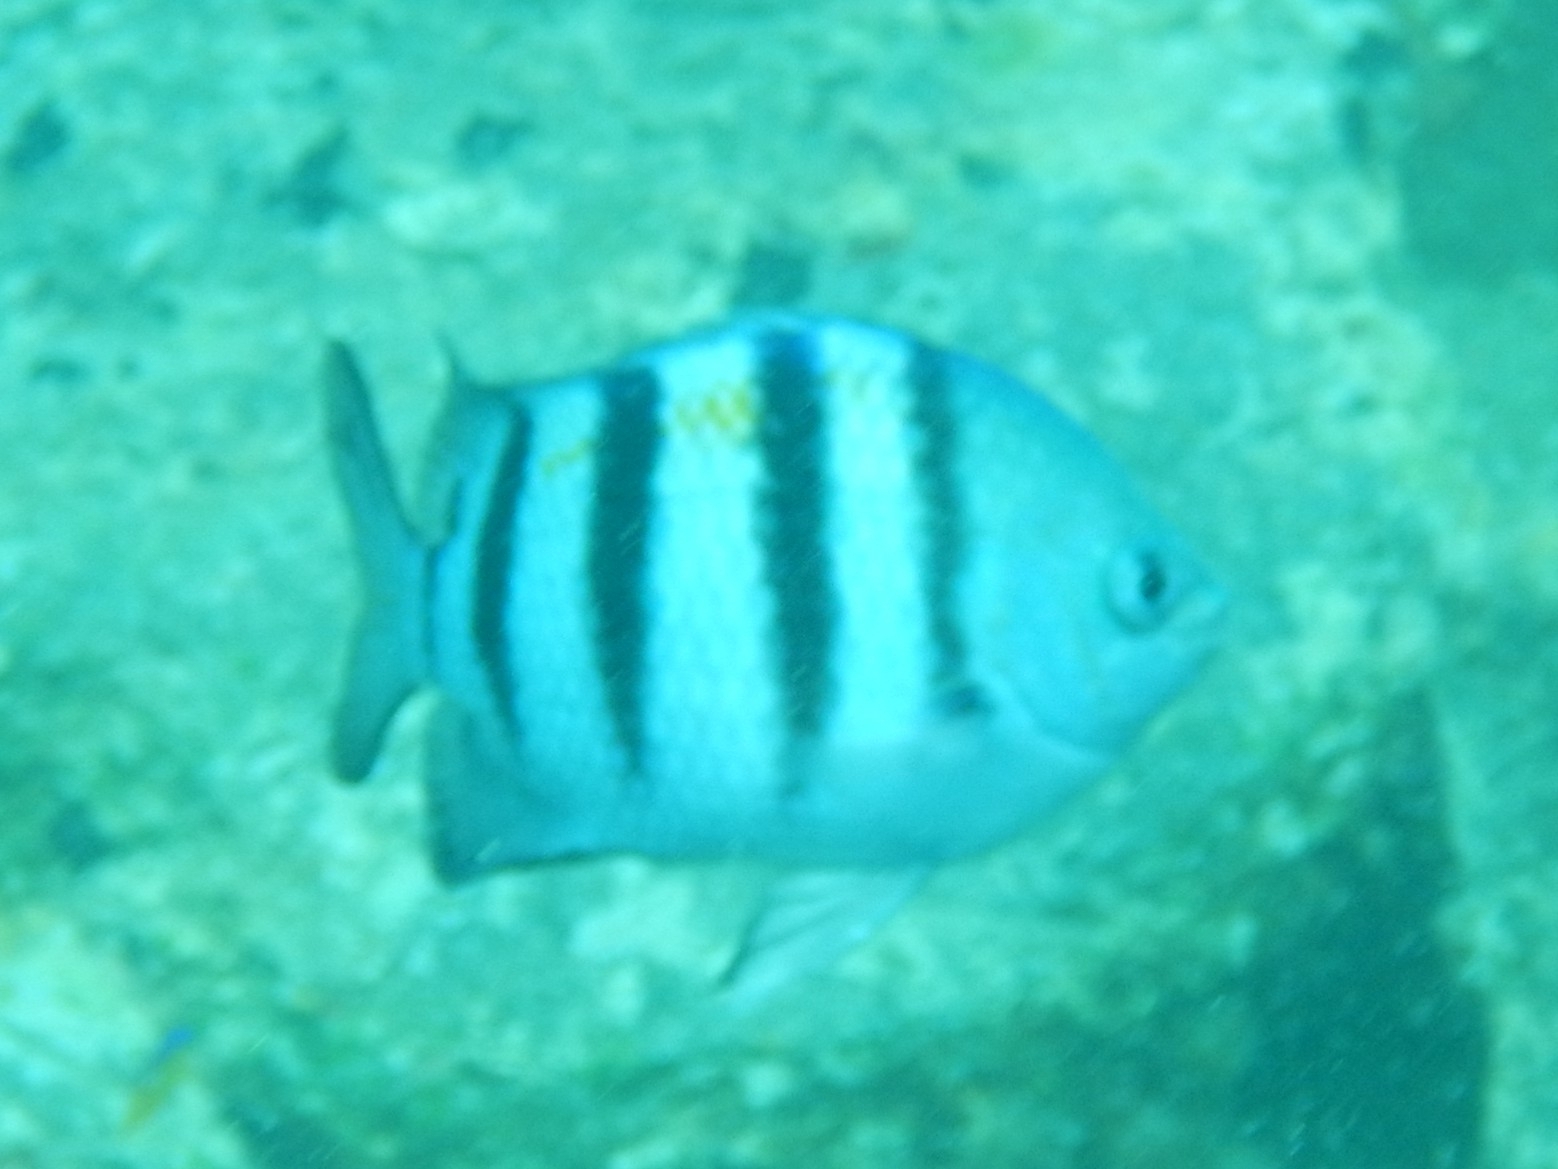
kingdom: Animalia
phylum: Chordata
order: Perciformes
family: Pomacentridae
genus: Abudefduf
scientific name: Abudefduf saxatilis
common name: Sergeant major
